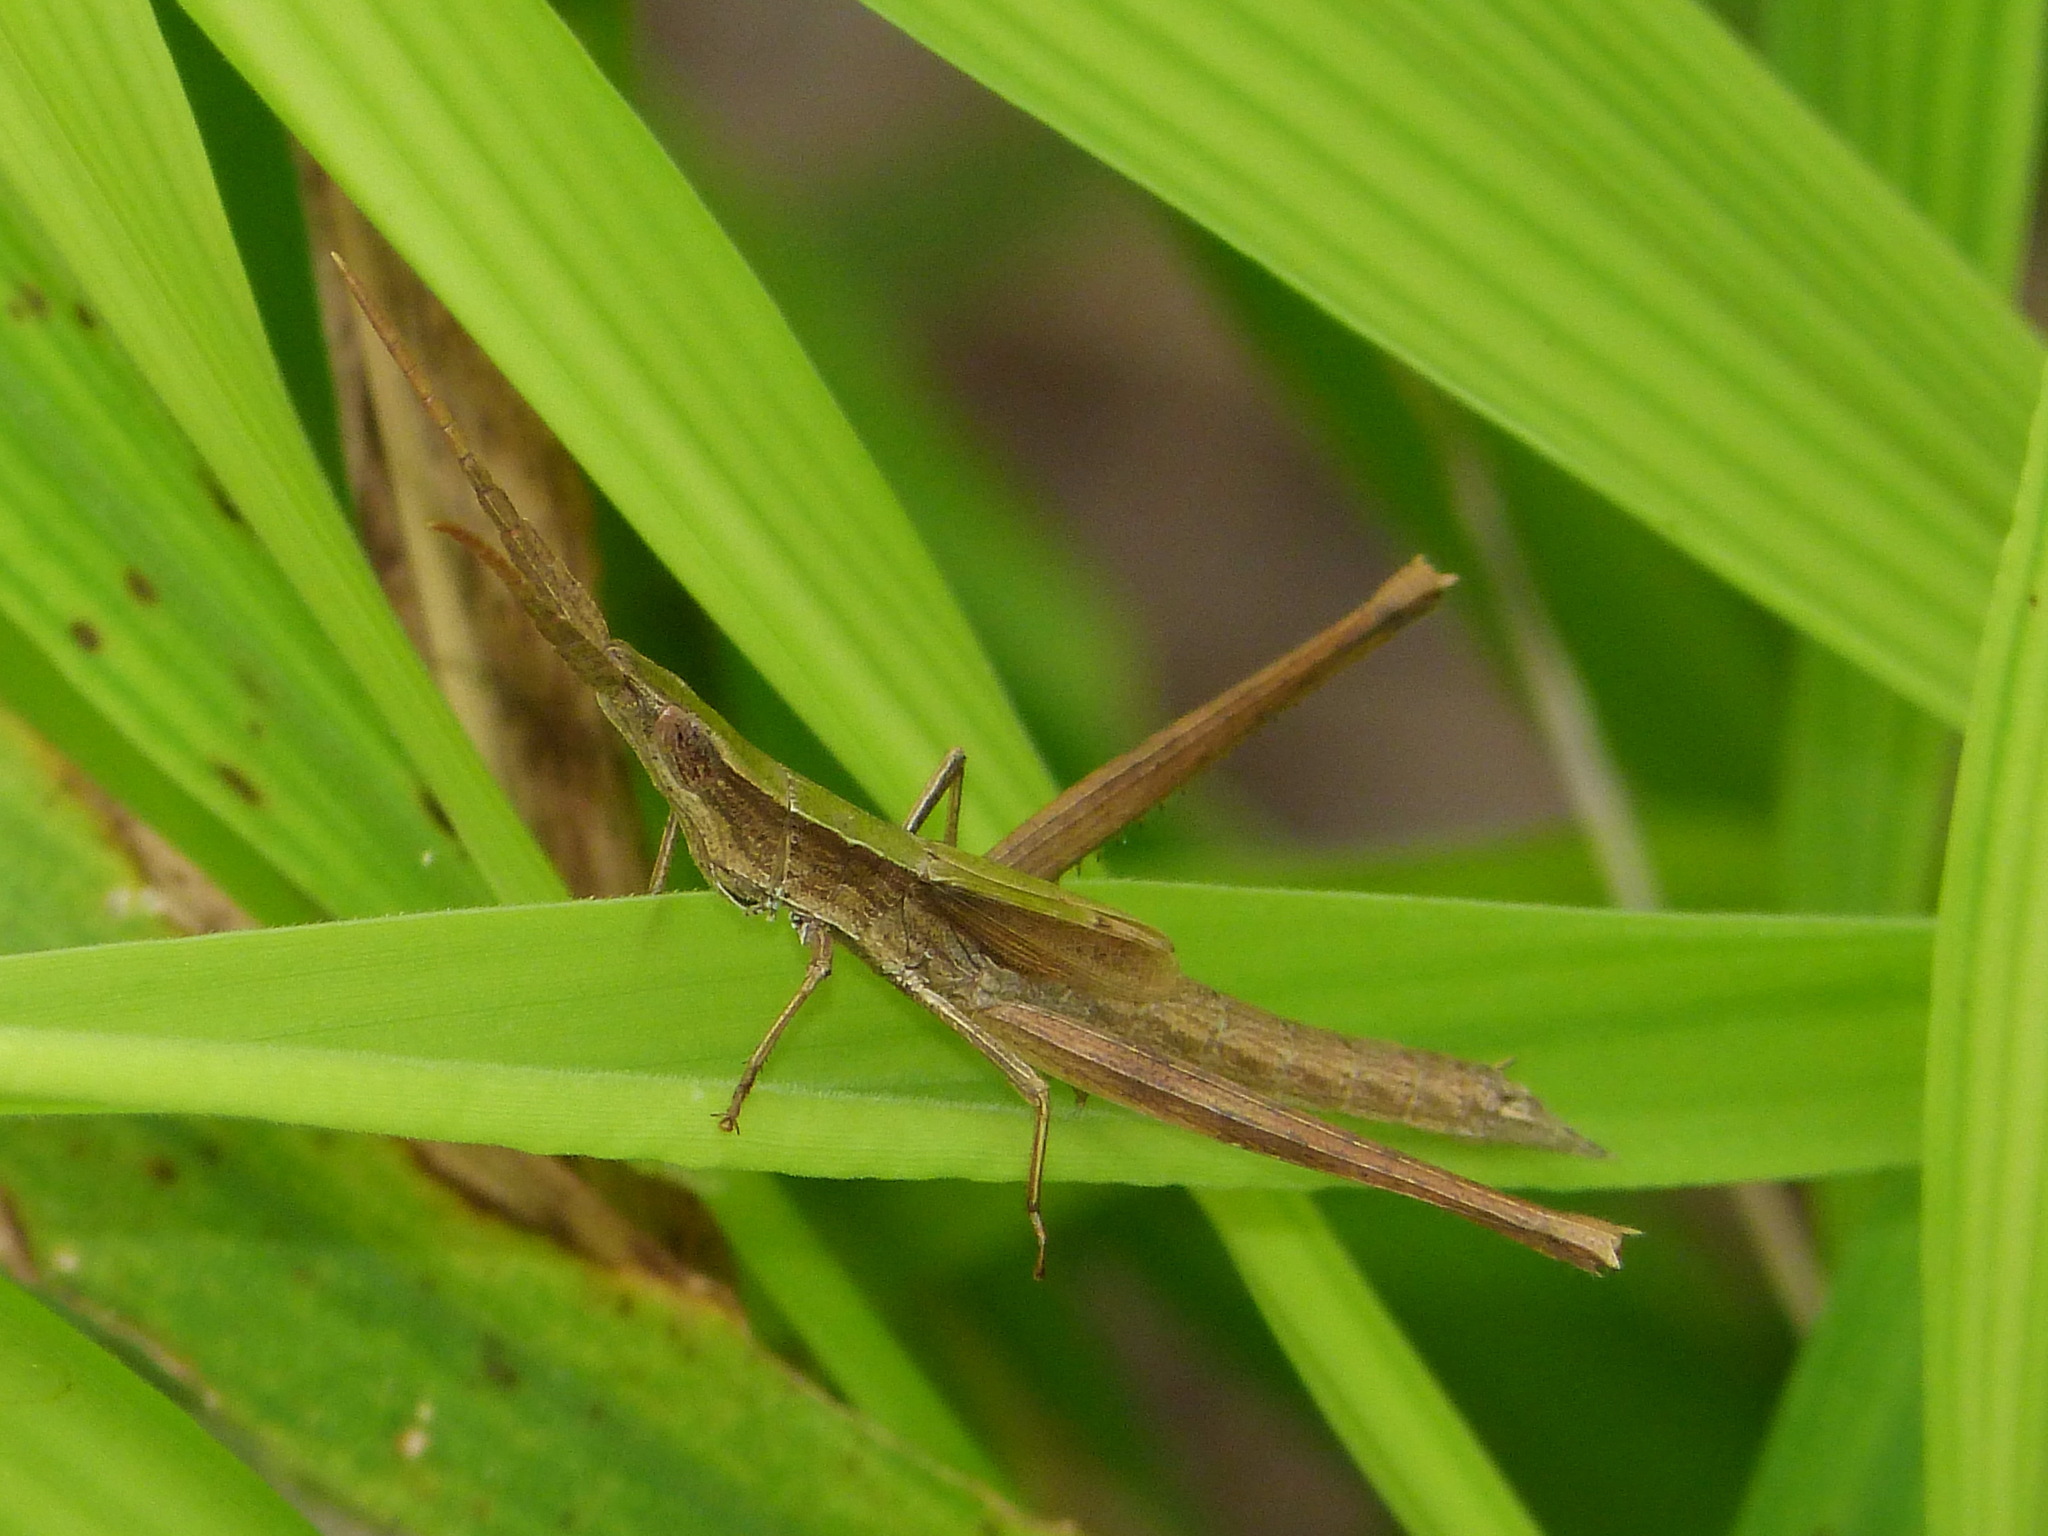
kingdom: Animalia
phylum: Arthropoda
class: Insecta
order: Orthoptera
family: Acrididae
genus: Achurum
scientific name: Achurum minimipenne
